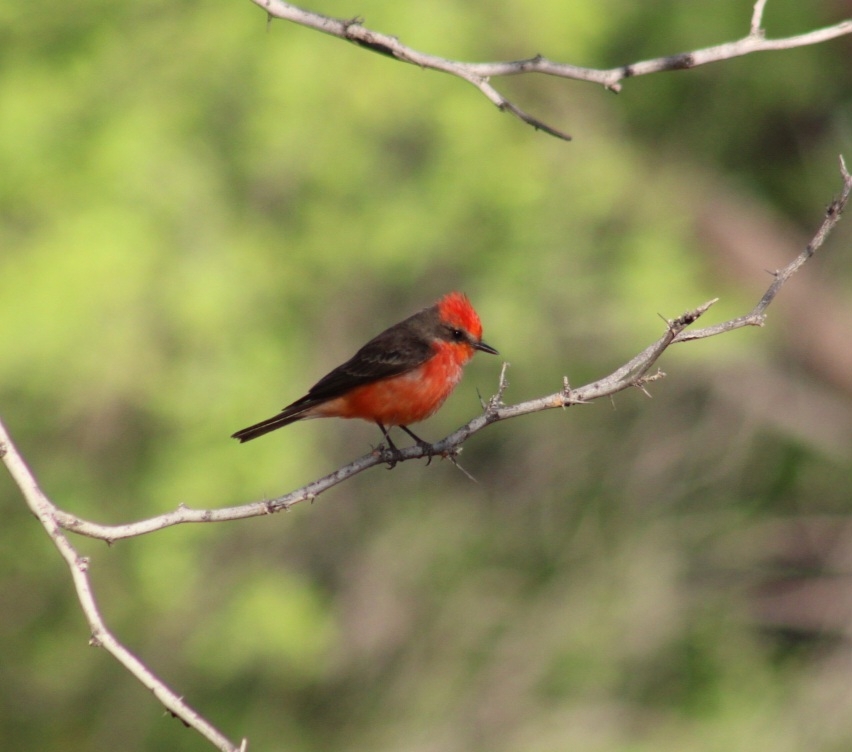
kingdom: Animalia
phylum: Chordata
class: Aves
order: Passeriformes
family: Tyrannidae
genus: Pyrocephalus
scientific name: Pyrocephalus rubinus
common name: Vermilion flycatcher
